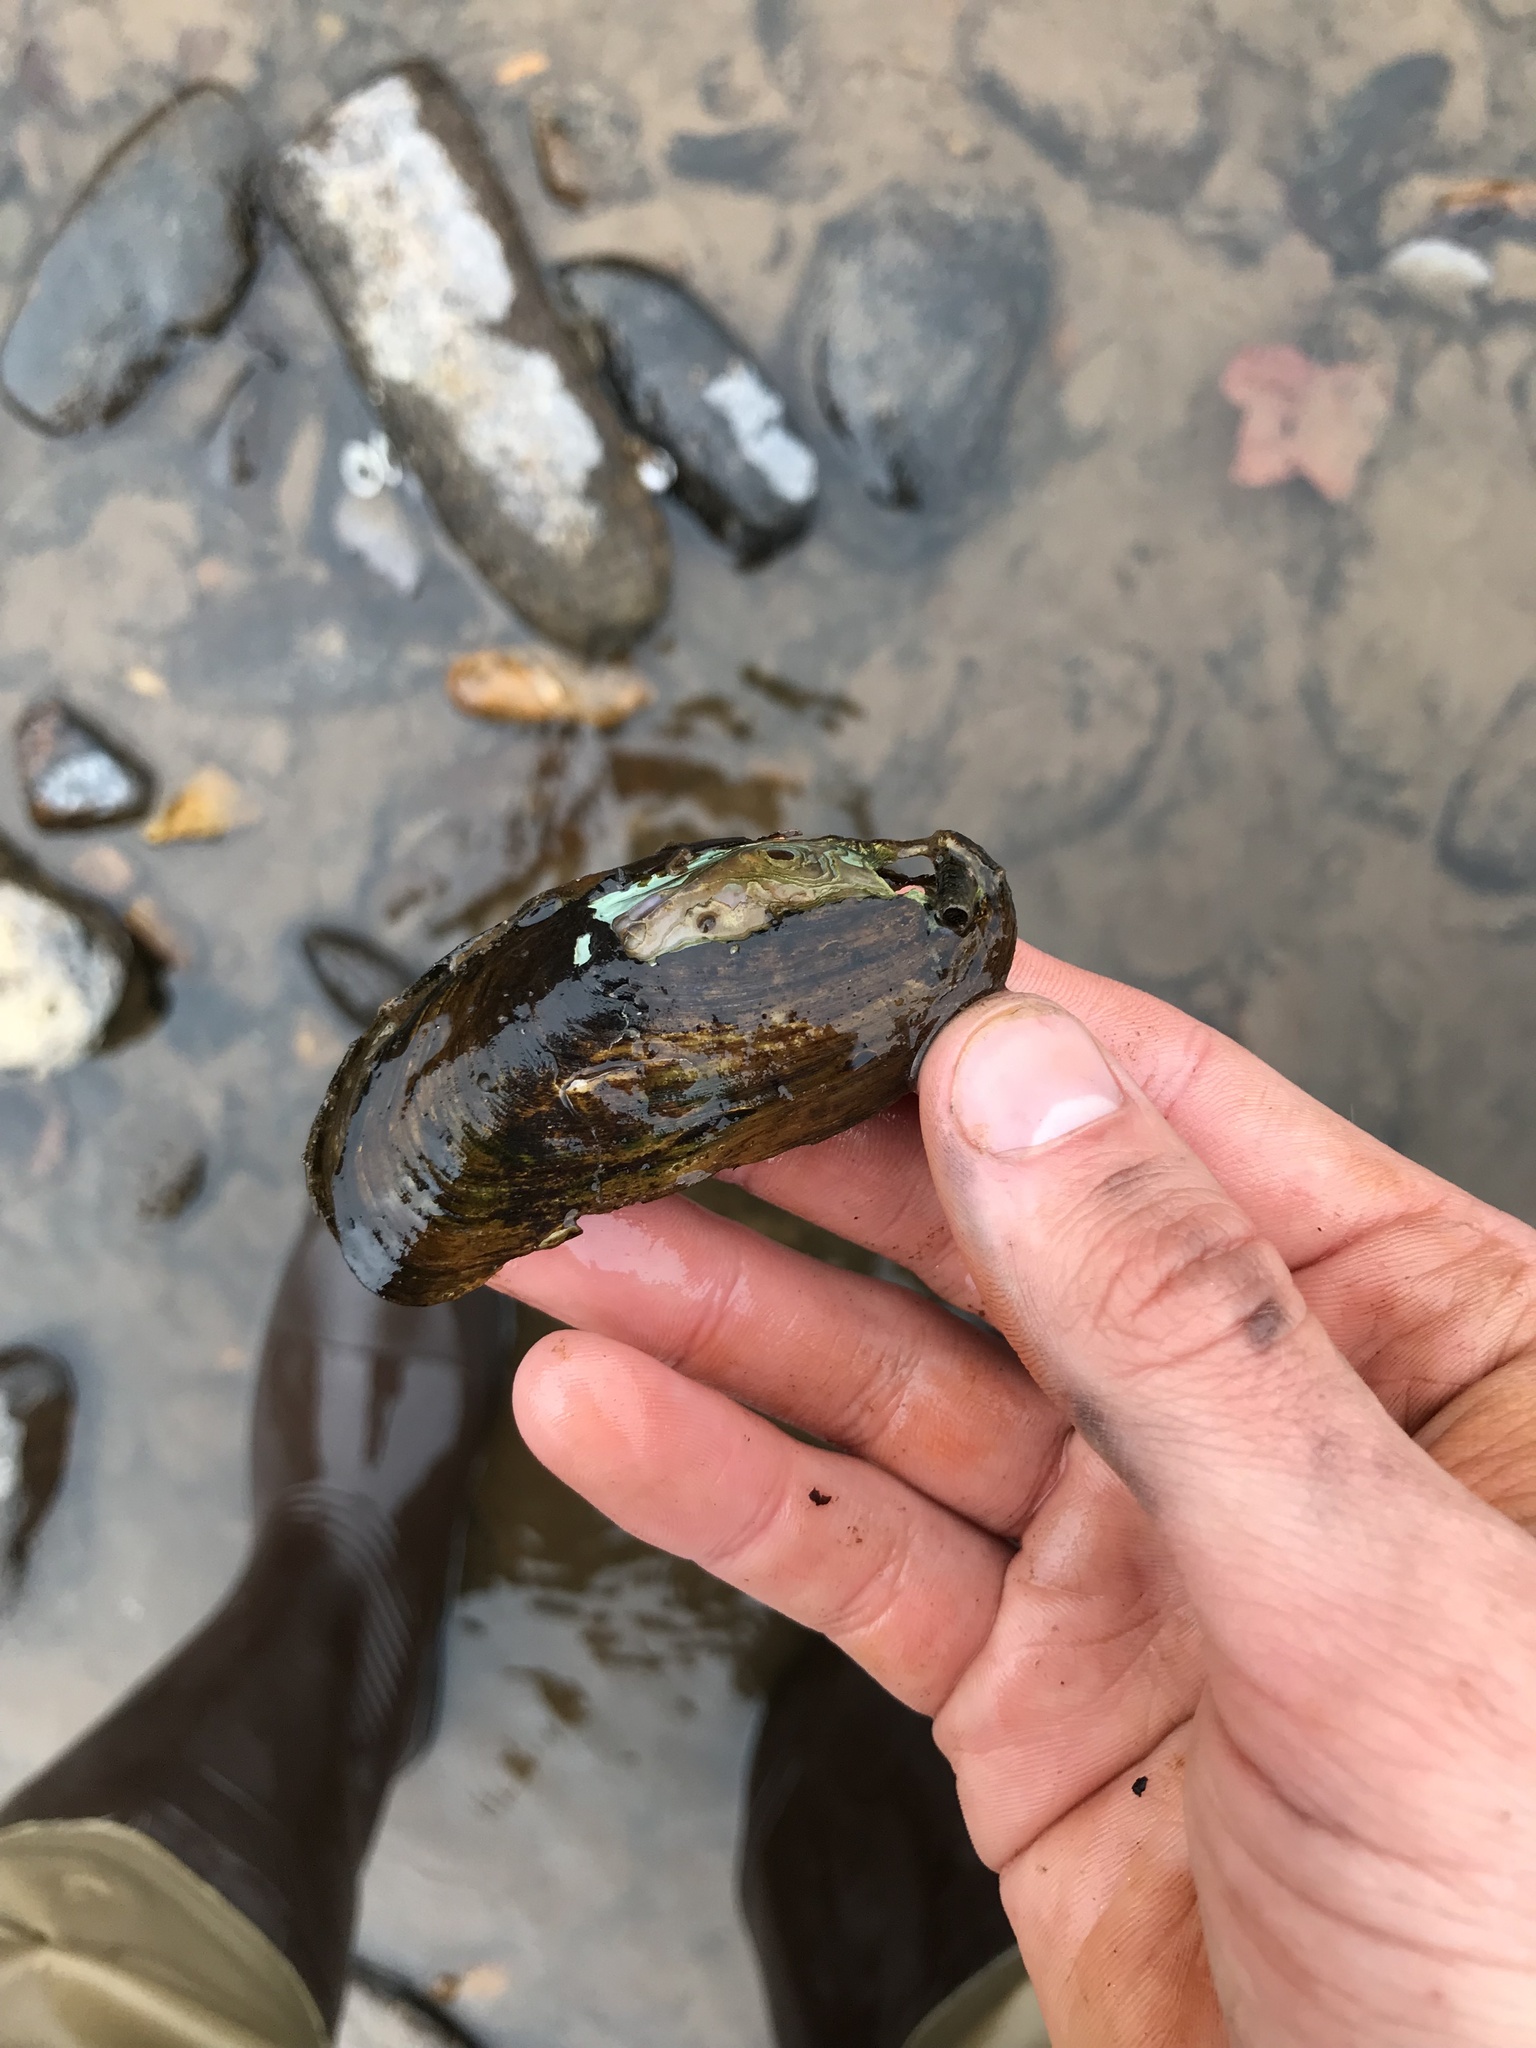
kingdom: Animalia
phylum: Mollusca
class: Bivalvia
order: Unionida
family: Unionidae
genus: Eurynia
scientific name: Eurynia dilatata
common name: Spike
